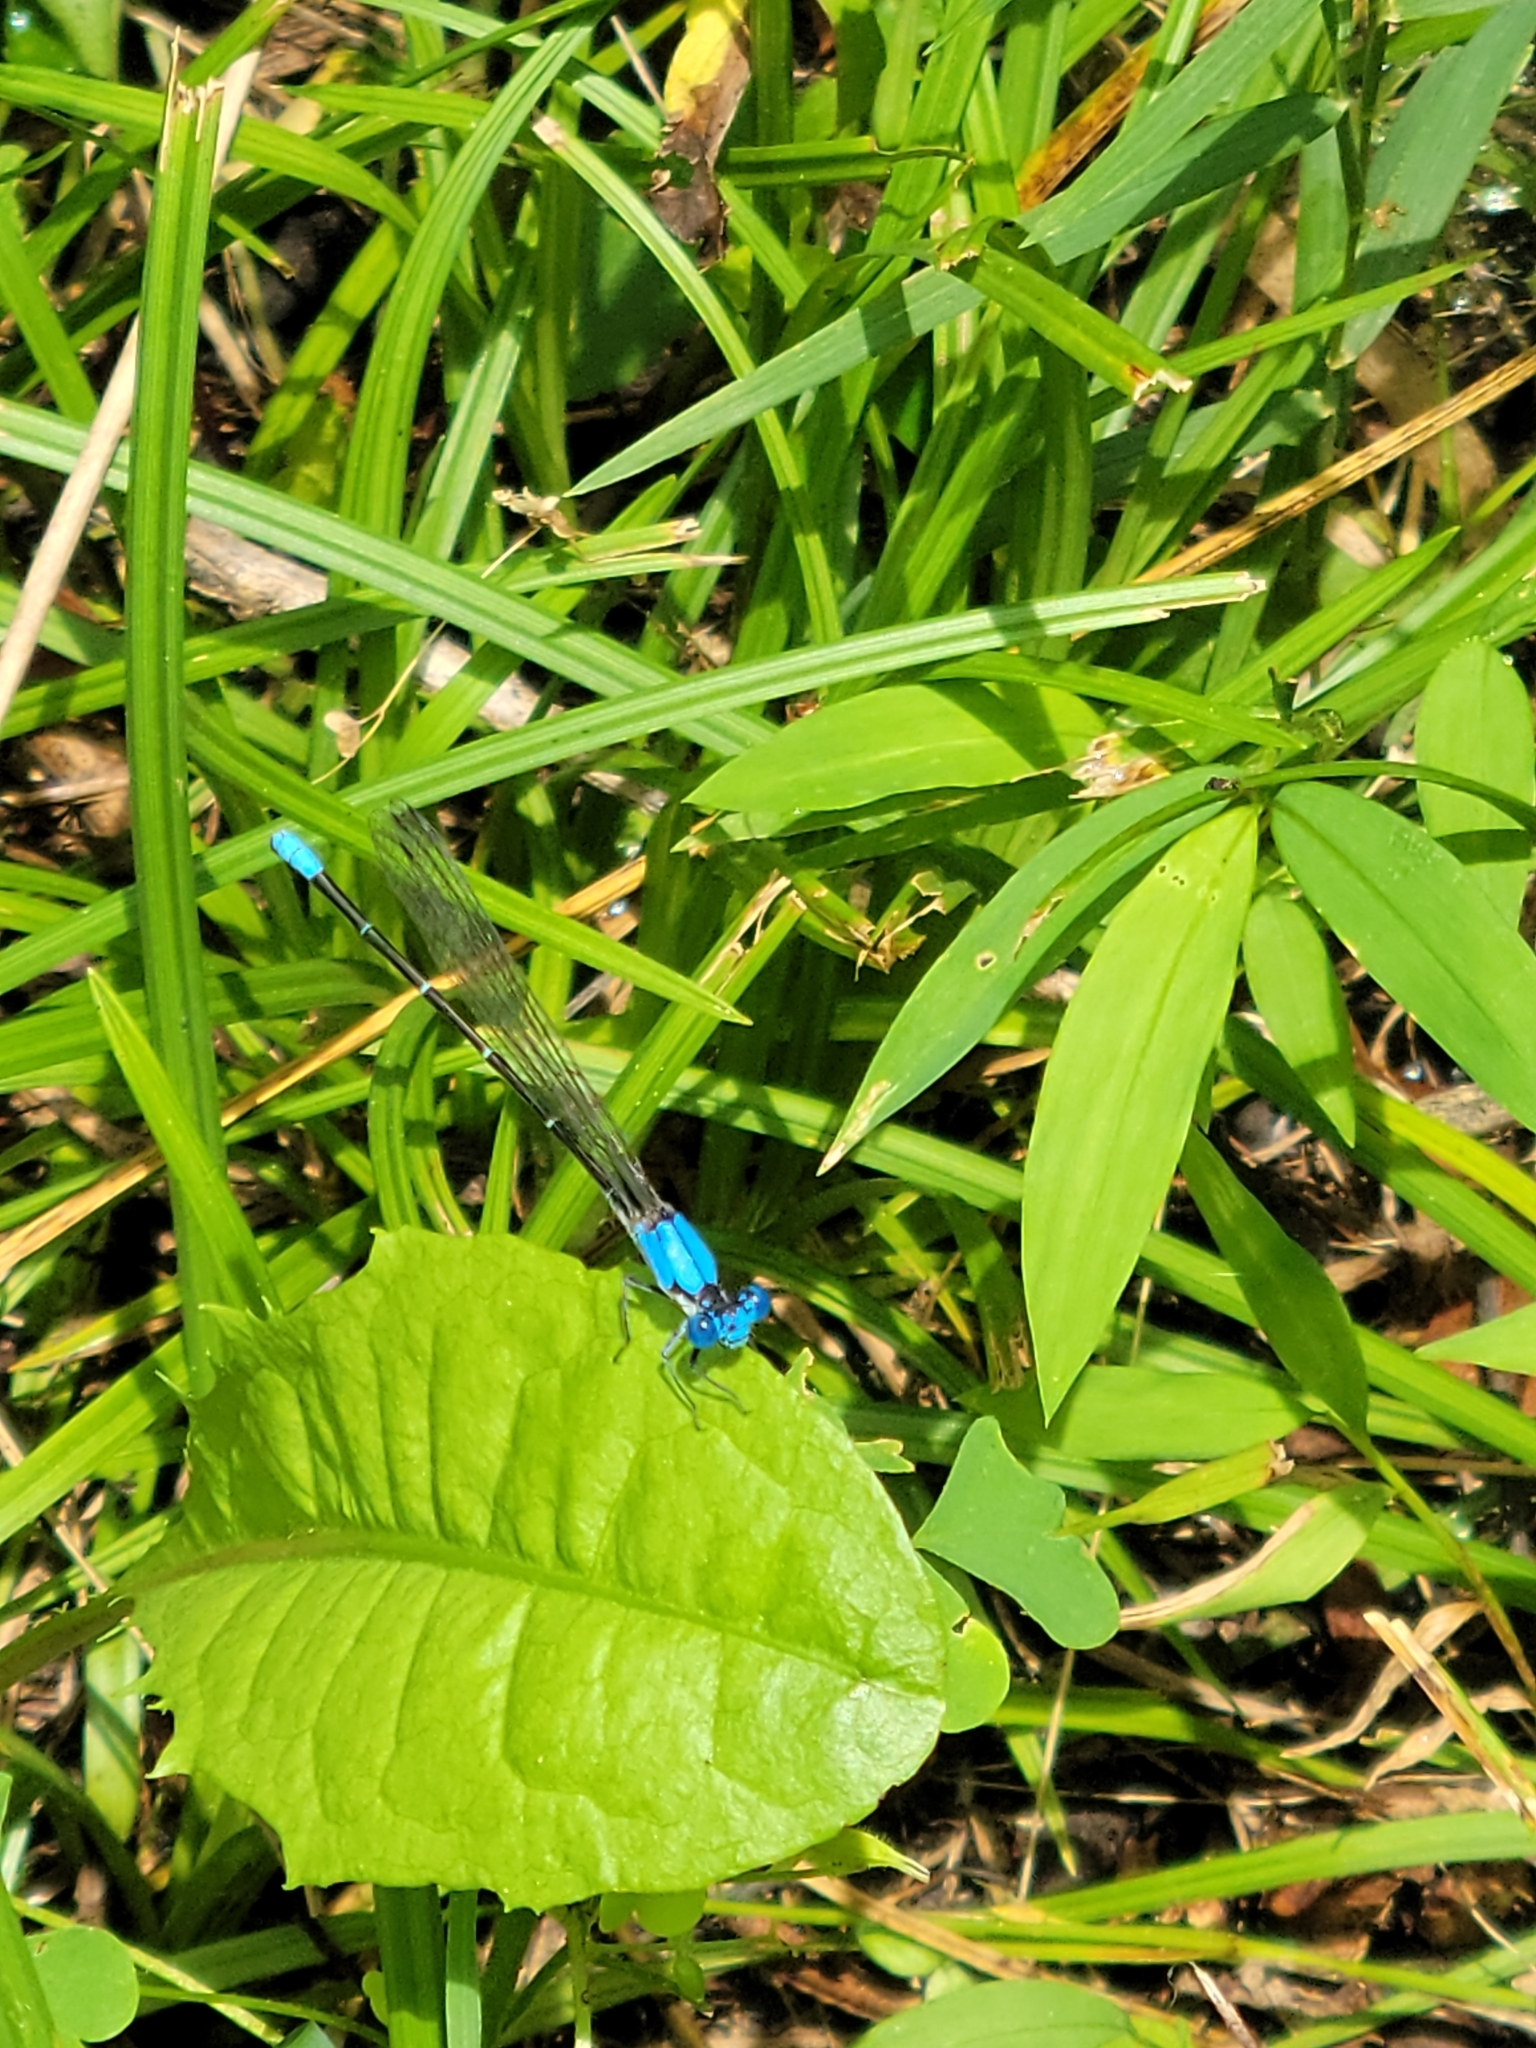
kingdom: Animalia
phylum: Arthropoda
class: Insecta
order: Odonata
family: Coenagrionidae
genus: Argia
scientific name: Argia apicalis
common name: Blue-fronted dancer
